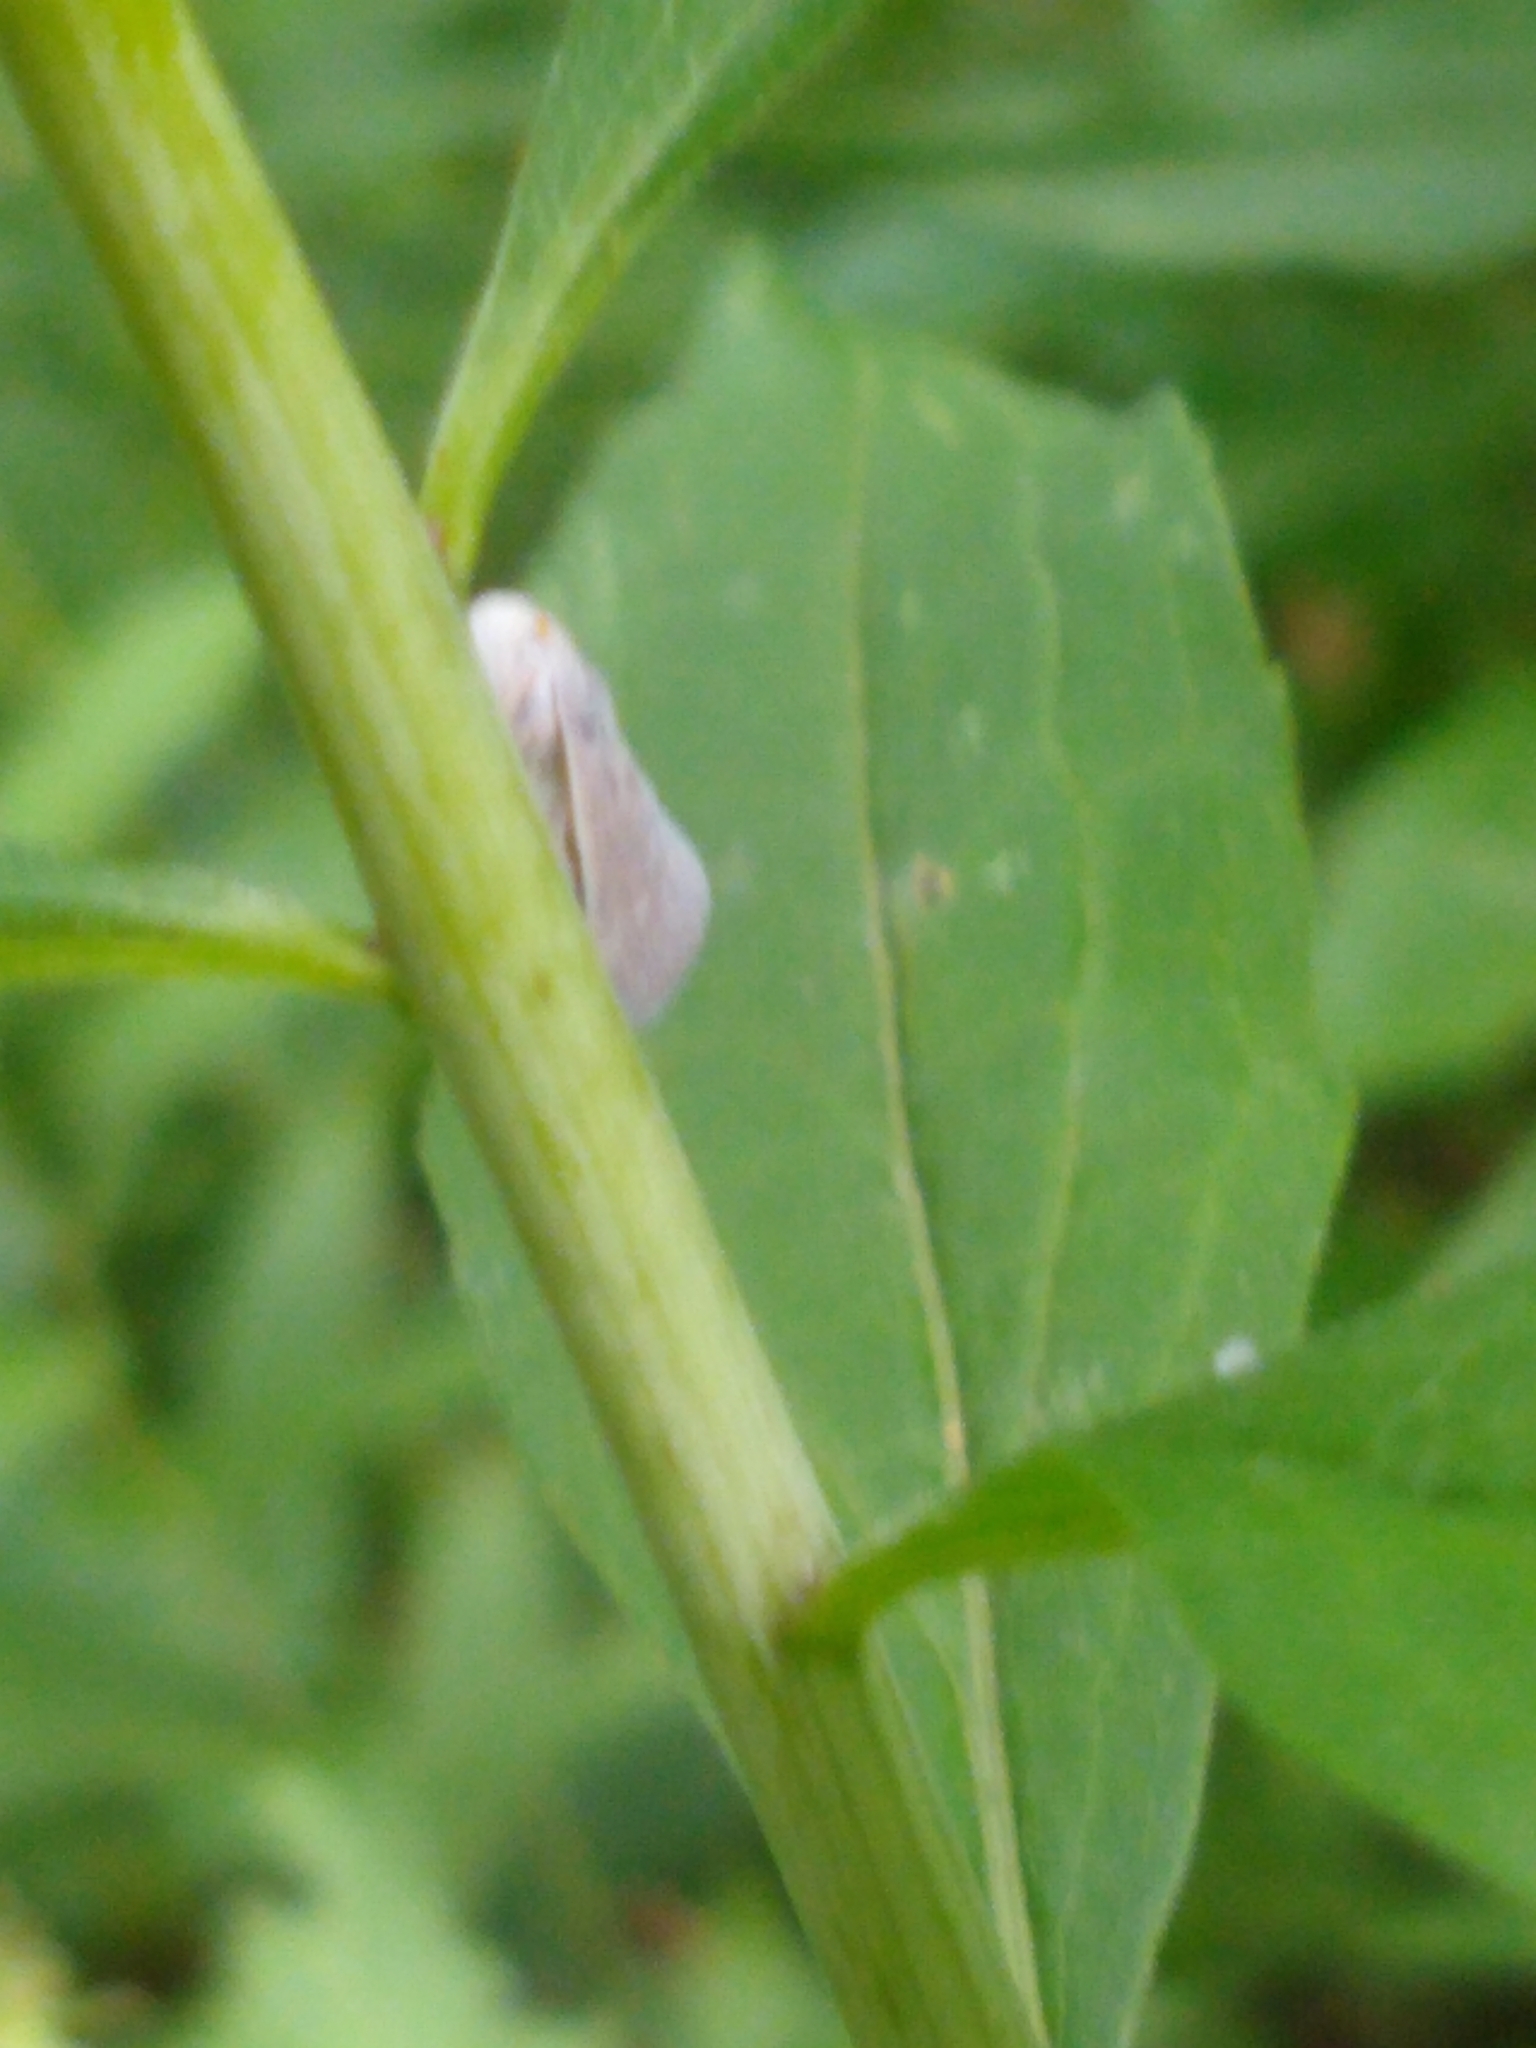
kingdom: Animalia
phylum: Arthropoda
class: Insecta
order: Hemiptera
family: Flatidae
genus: Metcalfa
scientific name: Metcalfa pruinosa
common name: Citrus flatid planthopper
